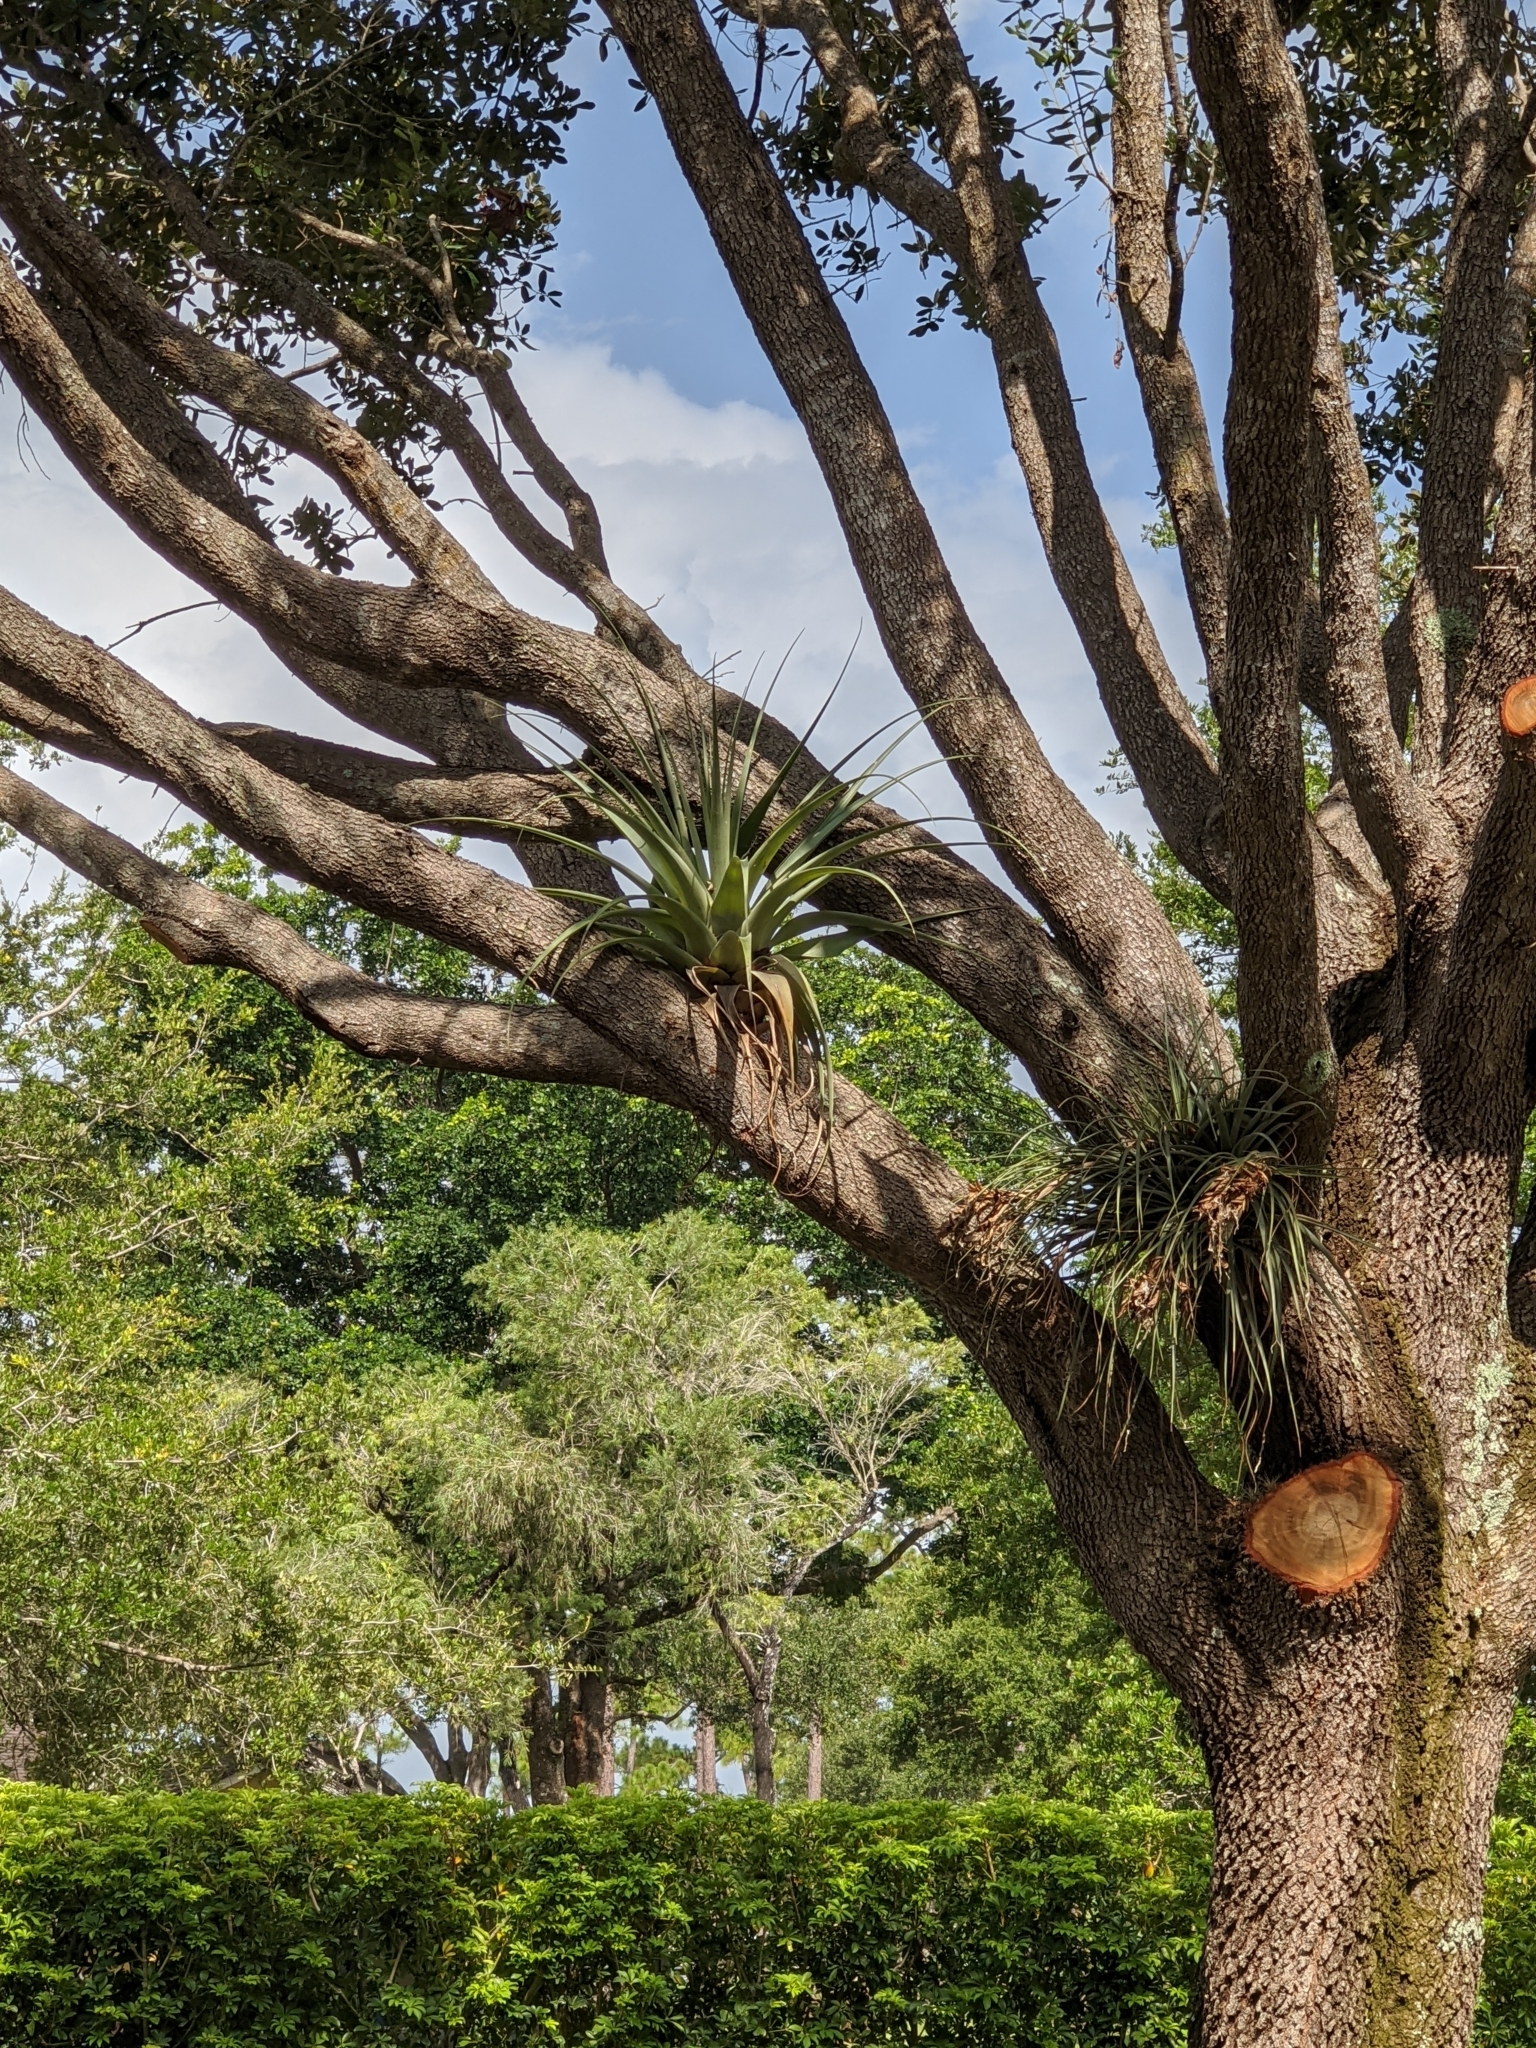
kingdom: Plantae
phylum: Tracheophyta
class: Liliopsida
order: Poales
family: Bromeliaceae
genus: Tillandsia
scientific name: Tillandsia utriculata
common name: Wild pine
